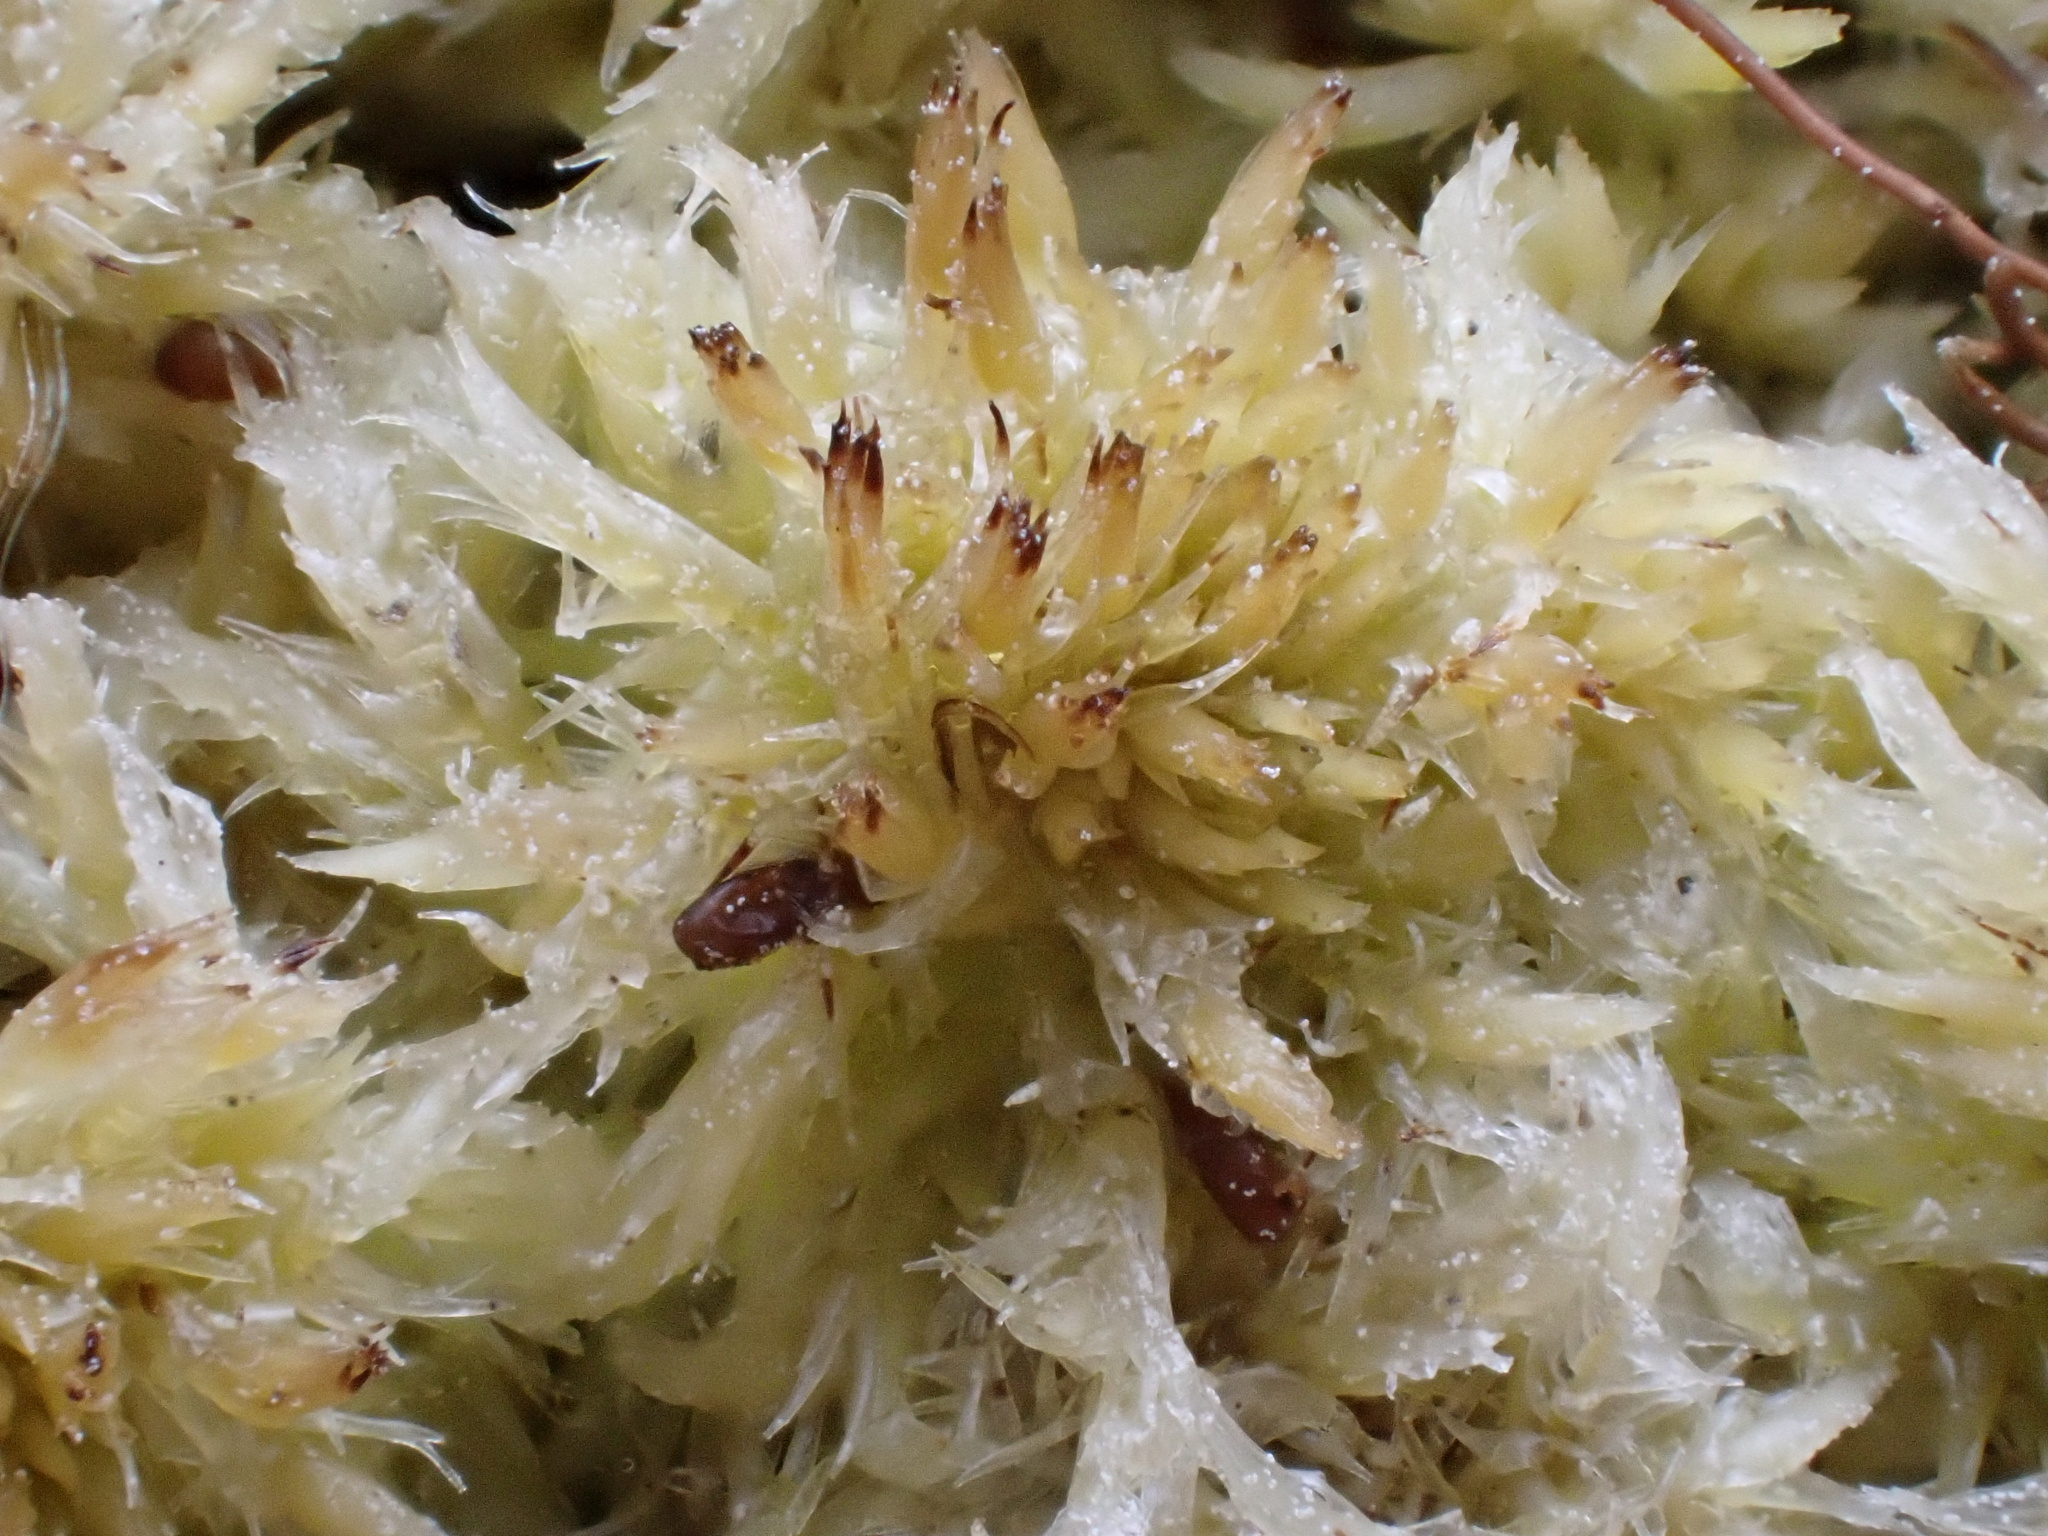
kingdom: Plantae
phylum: Bryophyta
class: Sphagnopsida
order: Sphagnales
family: Sphagnaceae
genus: Sphagnum
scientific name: Sphagnum cuspidatum
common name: Feathery peat moss
